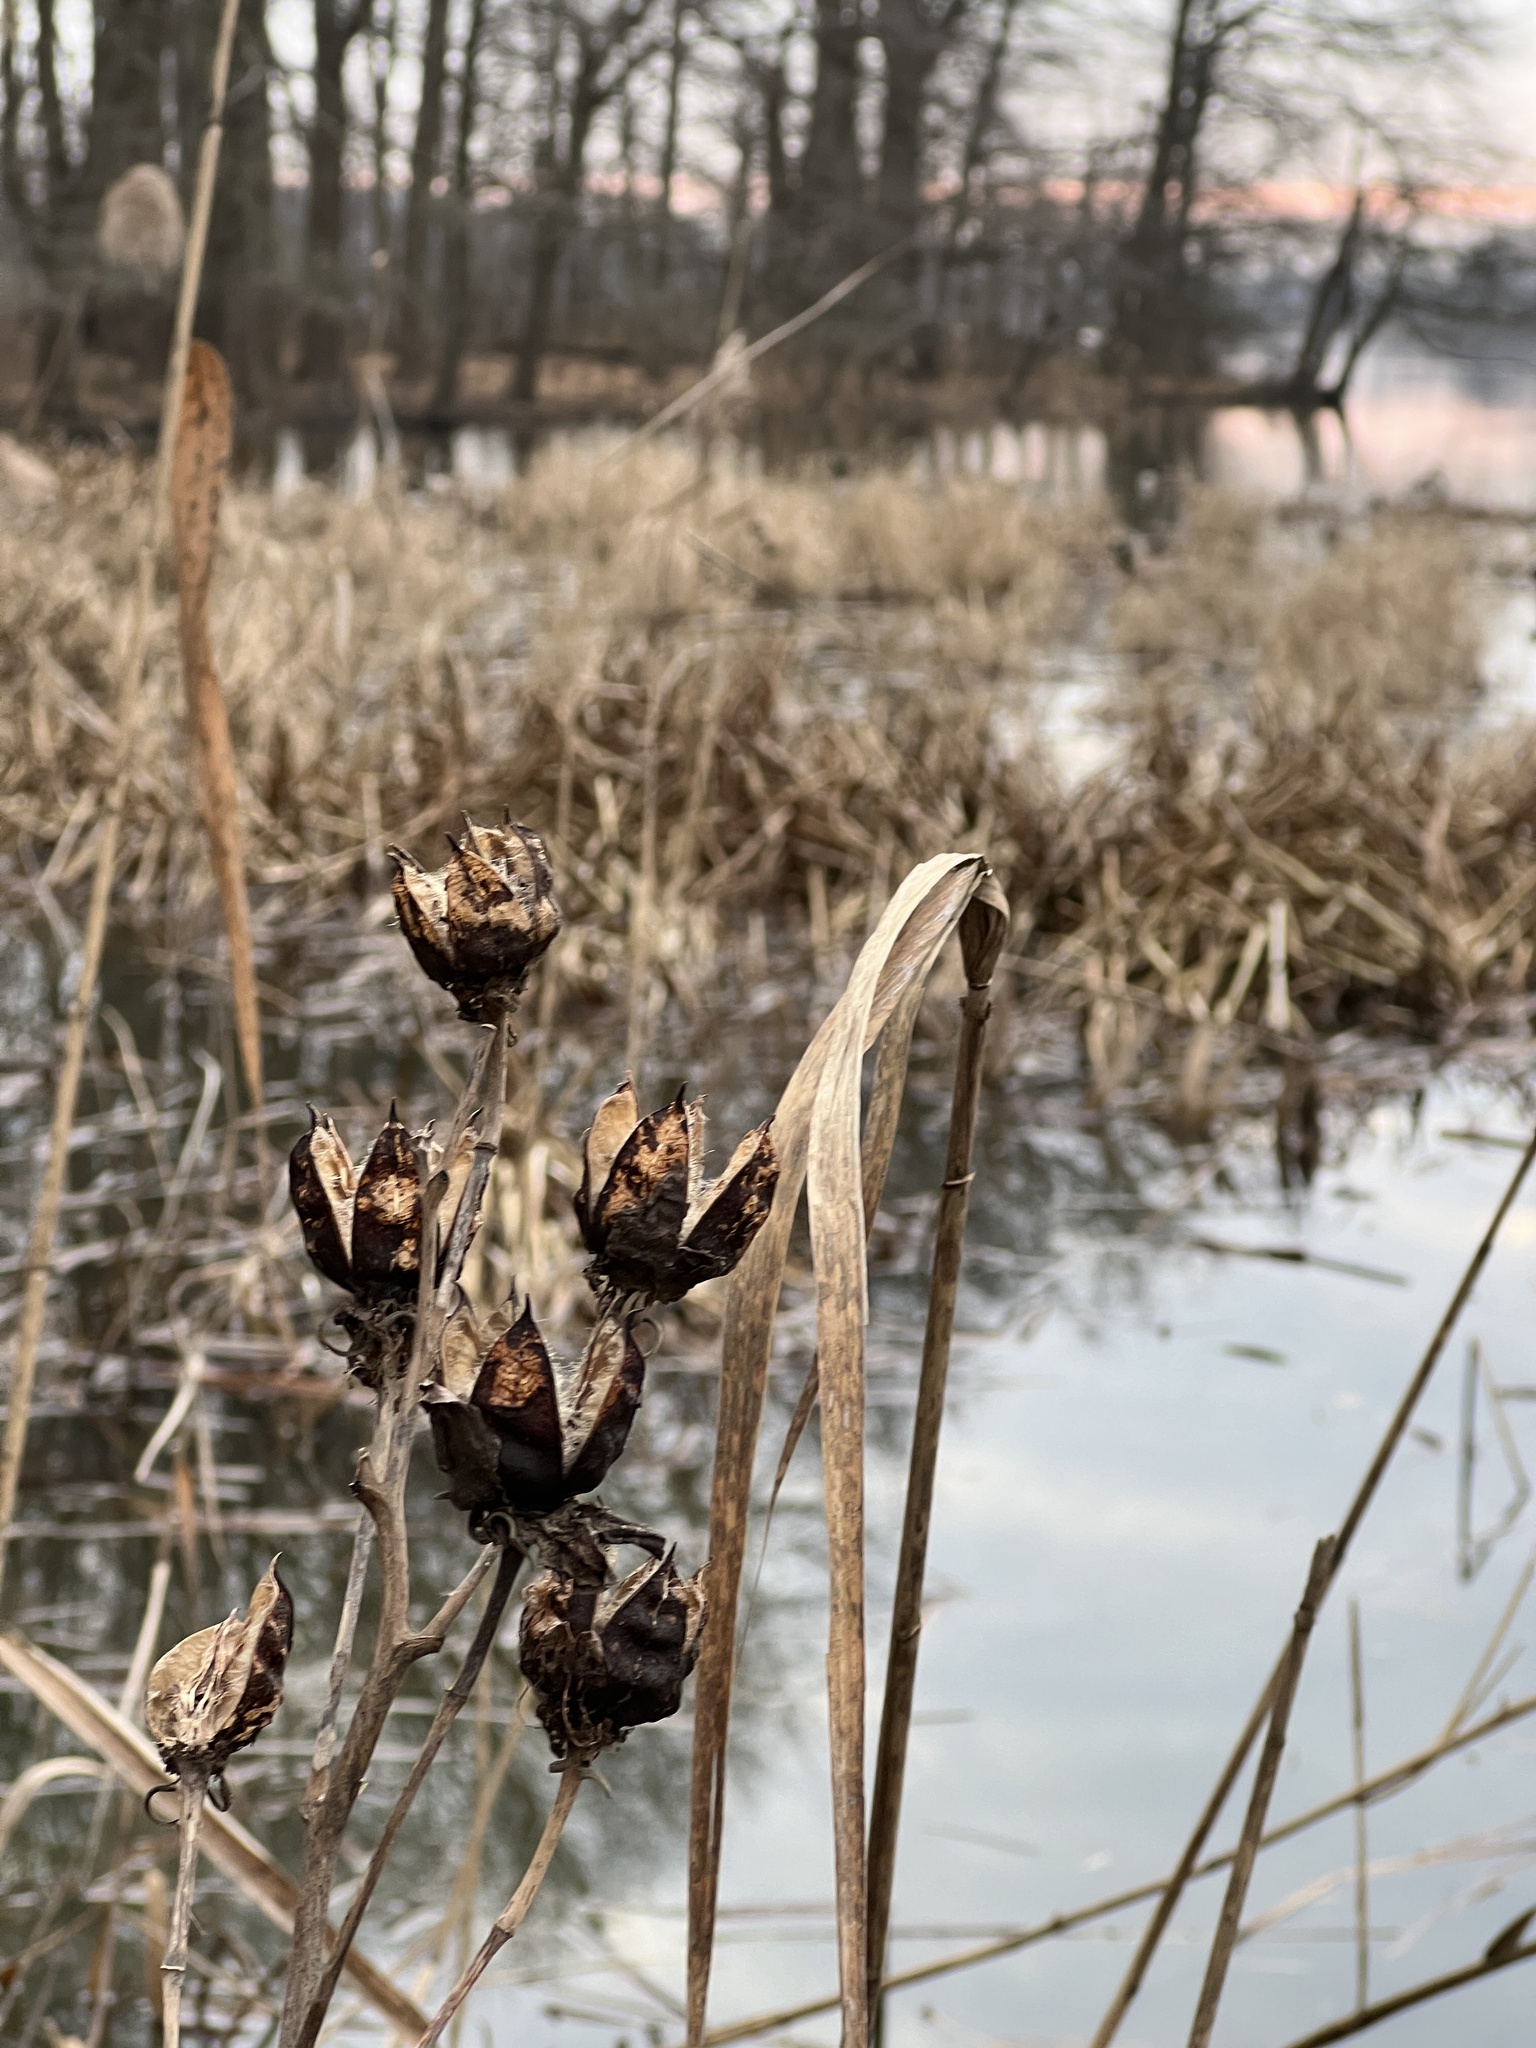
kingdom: Plantae
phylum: Tracheophyta
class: Magnoliopsida
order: Malvales
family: Malvaceae
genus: Hibiscus
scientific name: Hibiscus moscheutos
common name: Common rose-mallow
